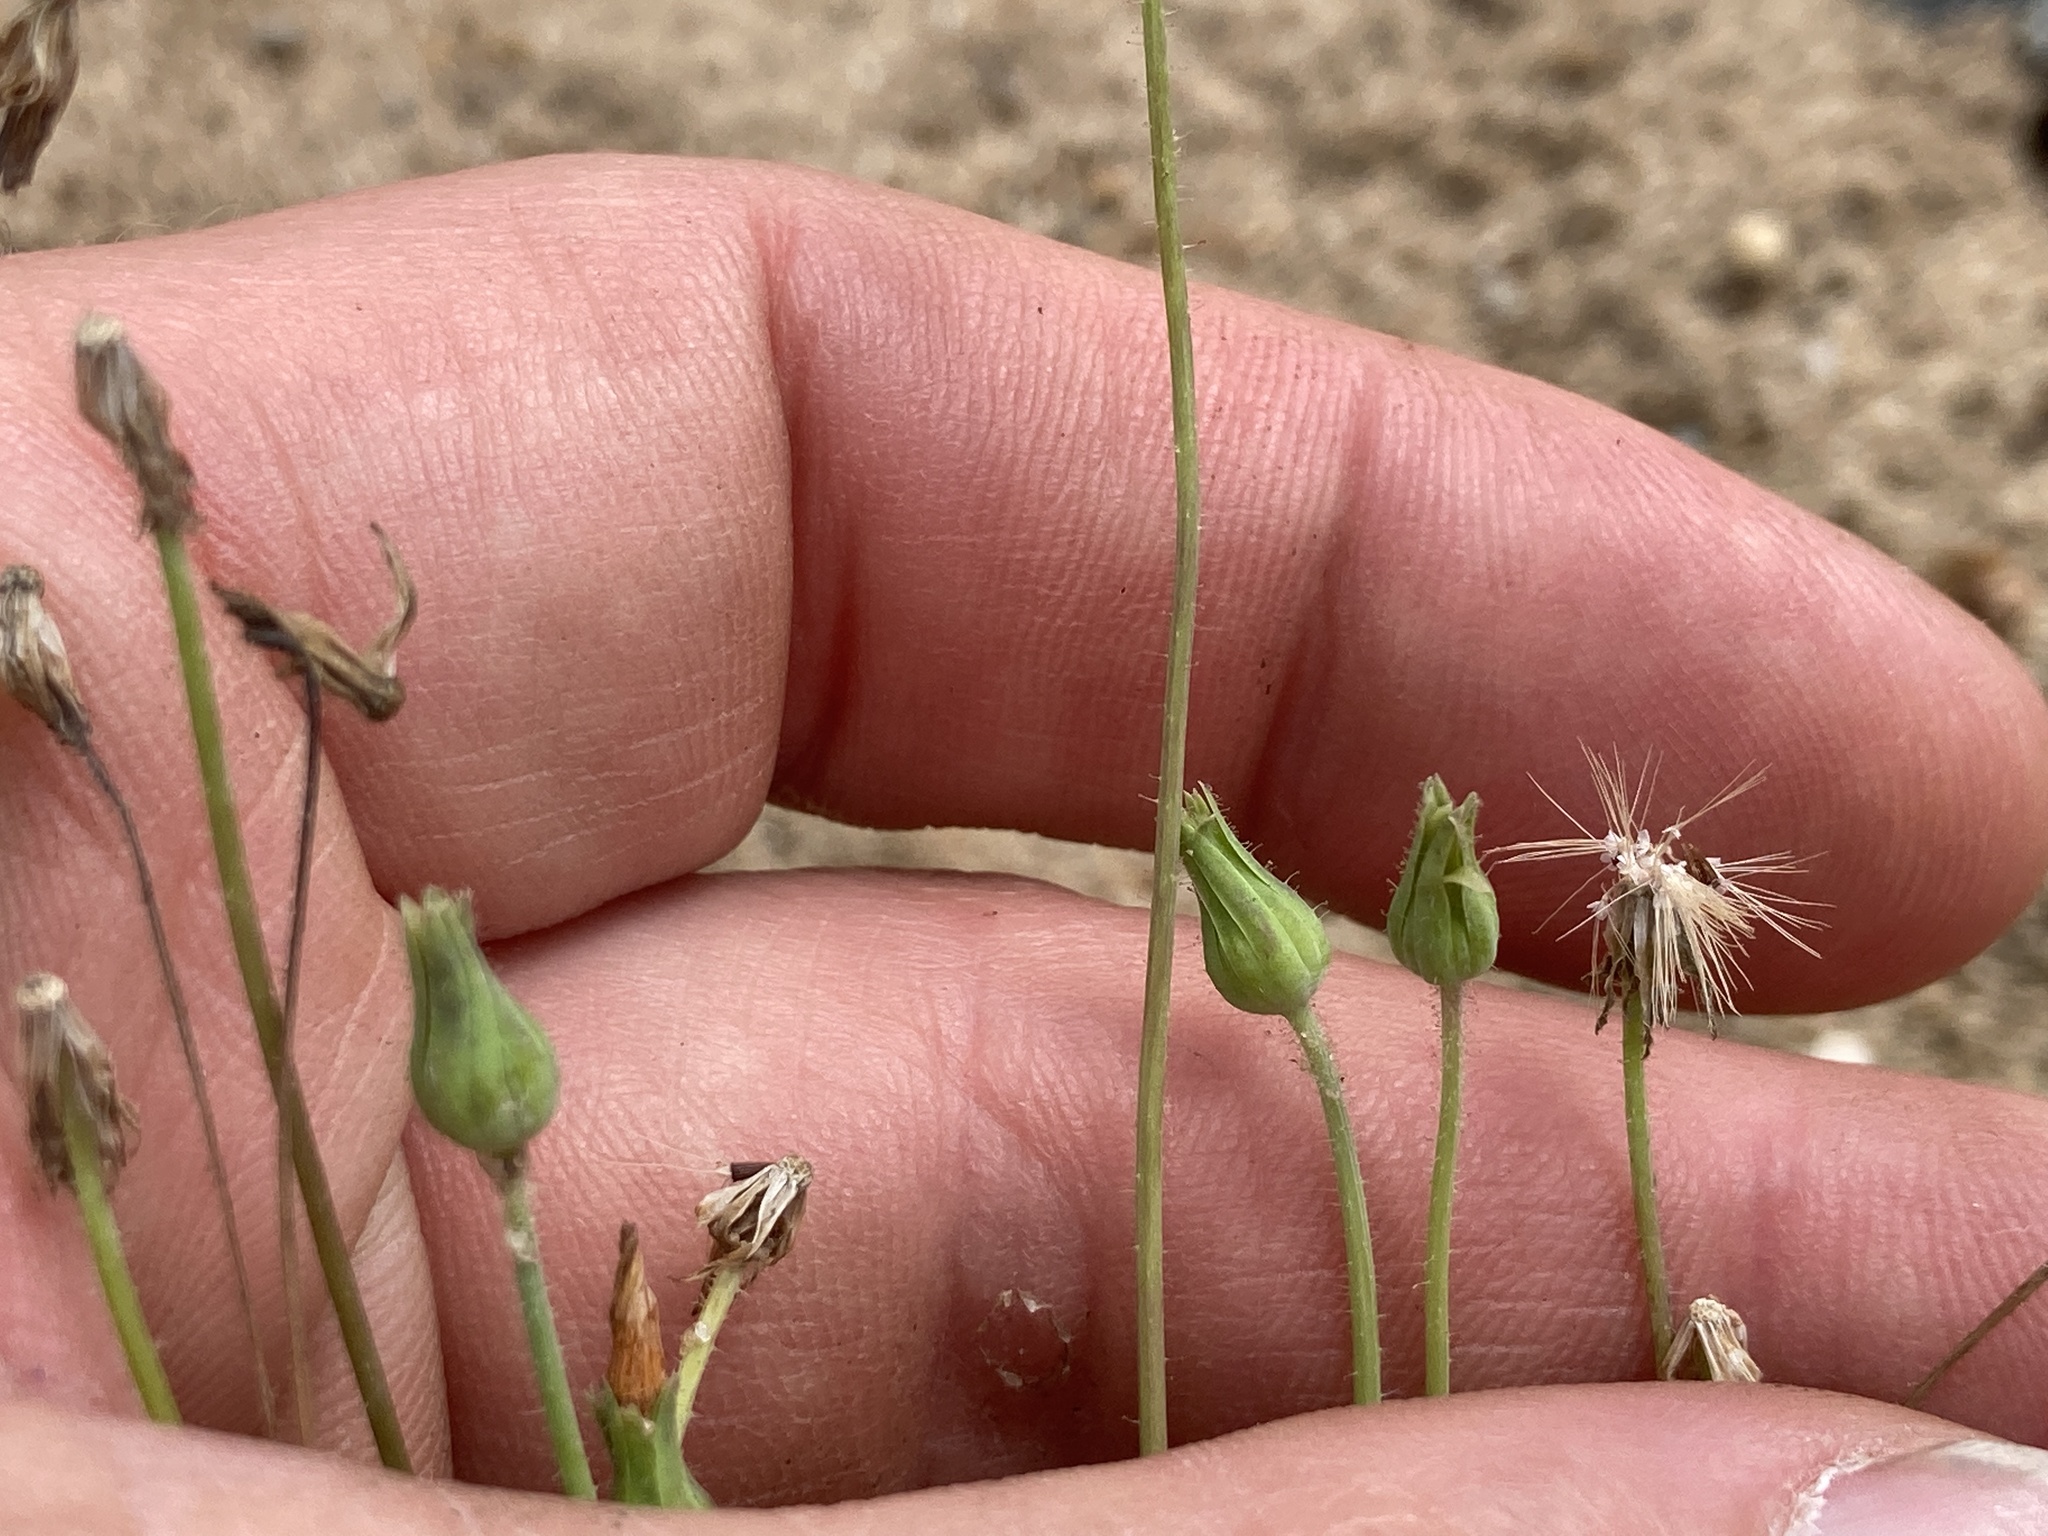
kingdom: Plantae
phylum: Tracheophyta
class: Magnoliopsida
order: Asterales
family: Asteraceae
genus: Krigia
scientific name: Krigia virginica
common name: Virginia dwarf-dandelion
